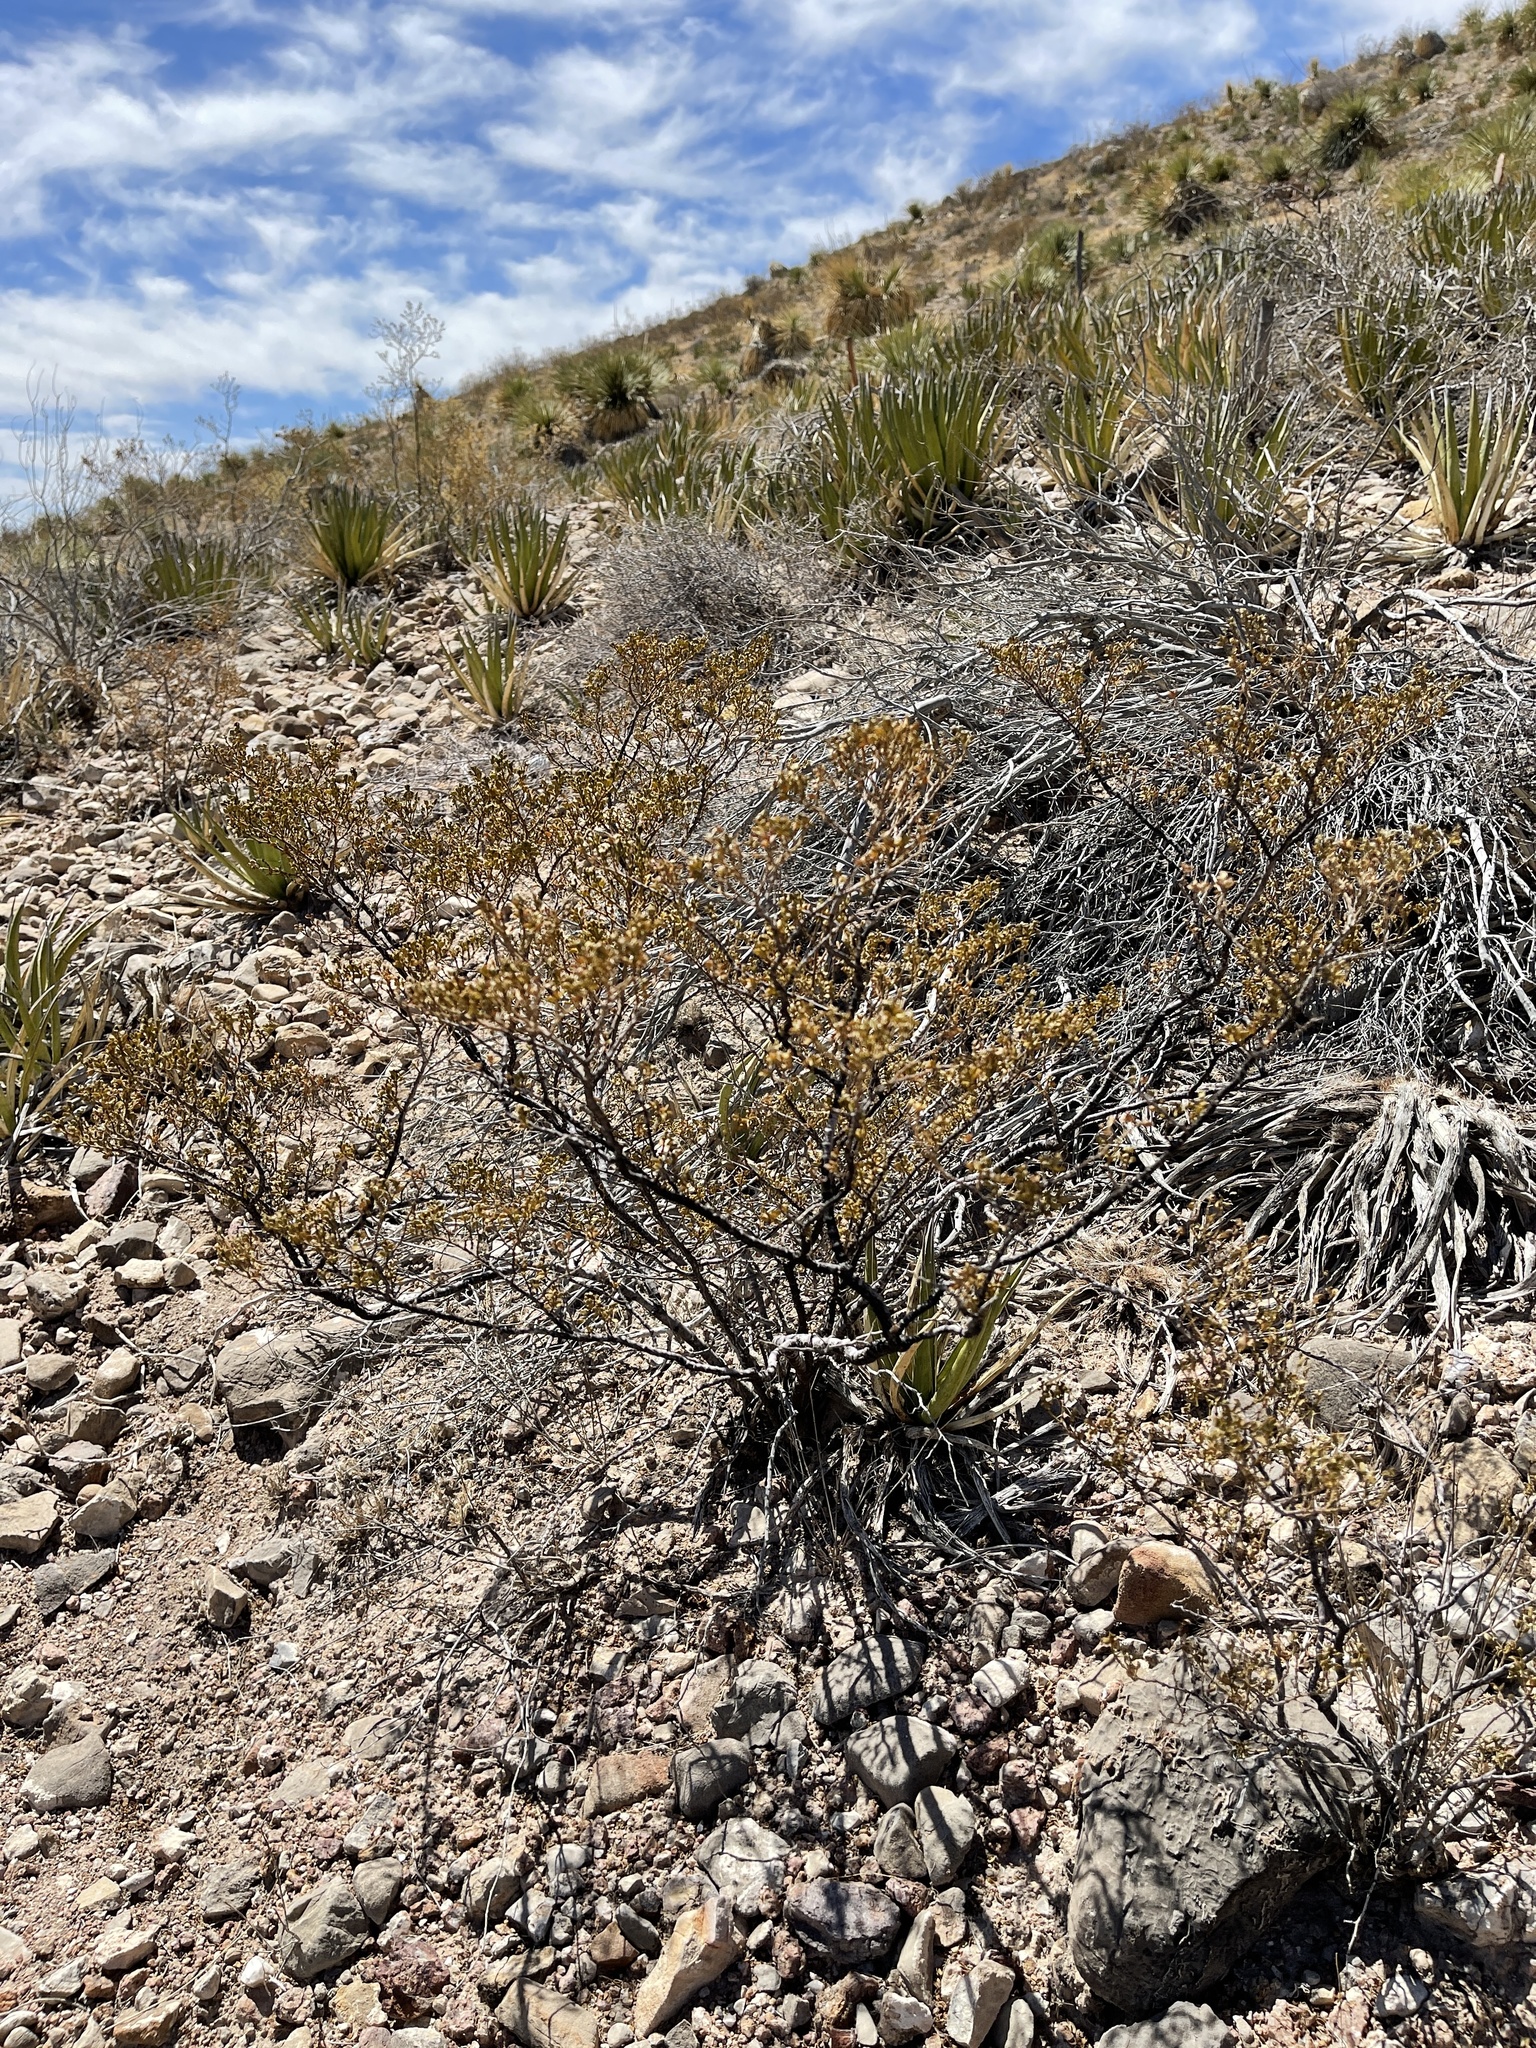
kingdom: Plantae
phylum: Tracheophyta
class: Magnoliopsida
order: Zygophyllales
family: Zygophyllaceae
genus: Larrea
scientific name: Larrea tridentata
